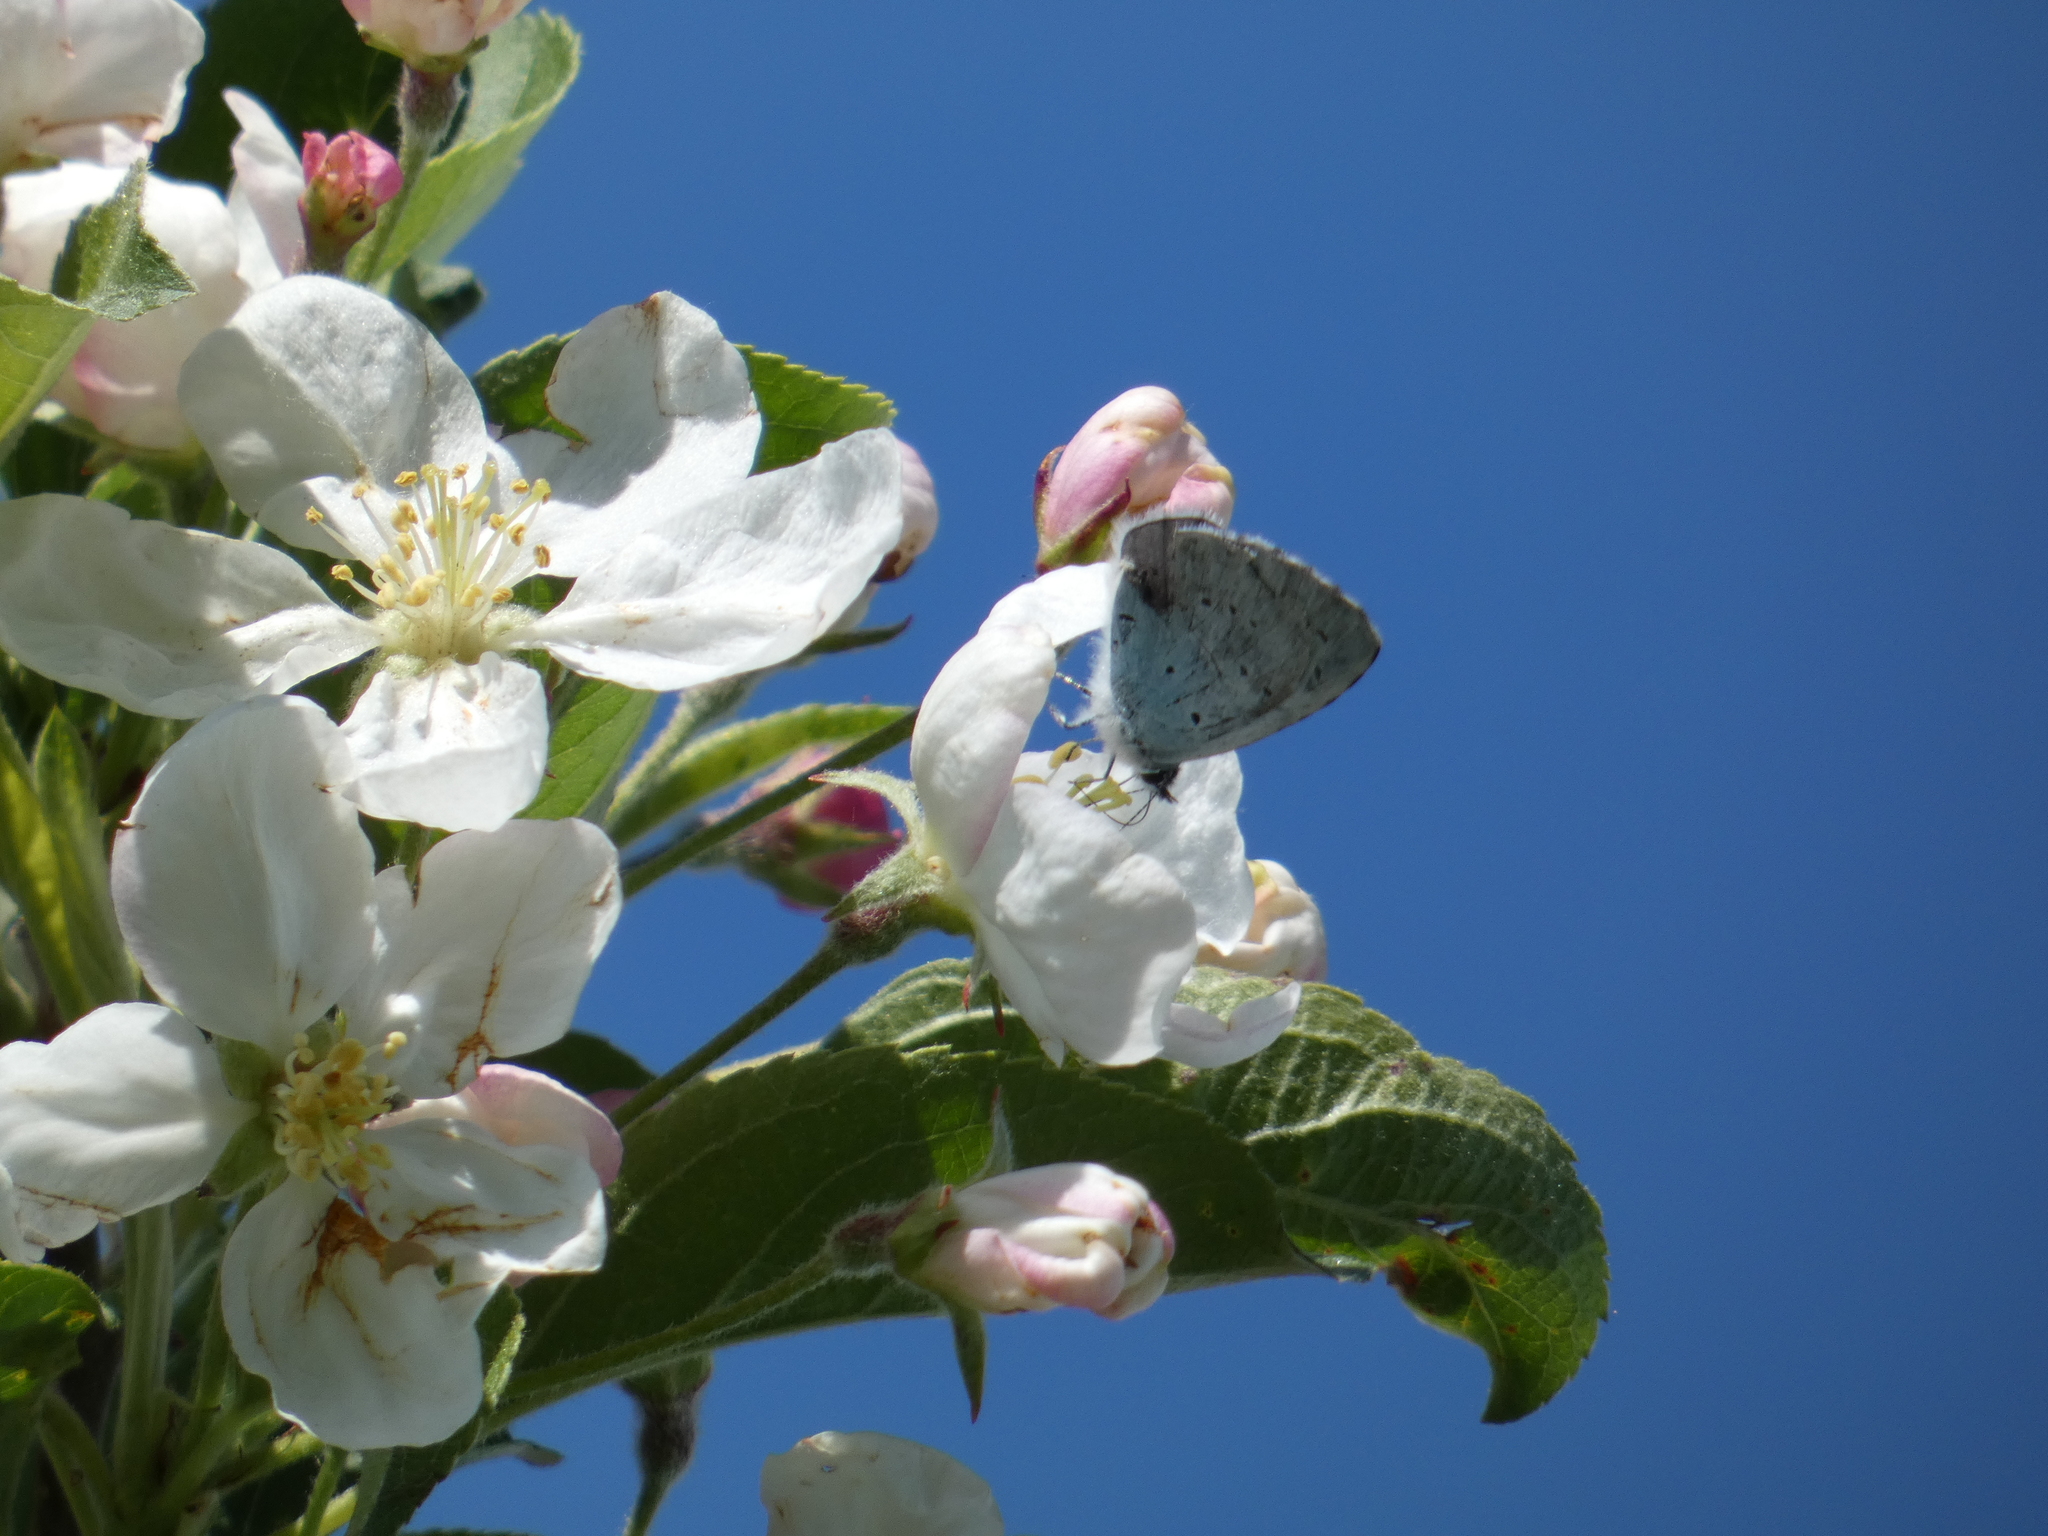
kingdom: Animalia
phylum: Arthropoda
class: Insecta
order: Lepidoptera
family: Lycaenidae
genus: Celastrina
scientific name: Celastrina argiolus
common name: Holly blue
